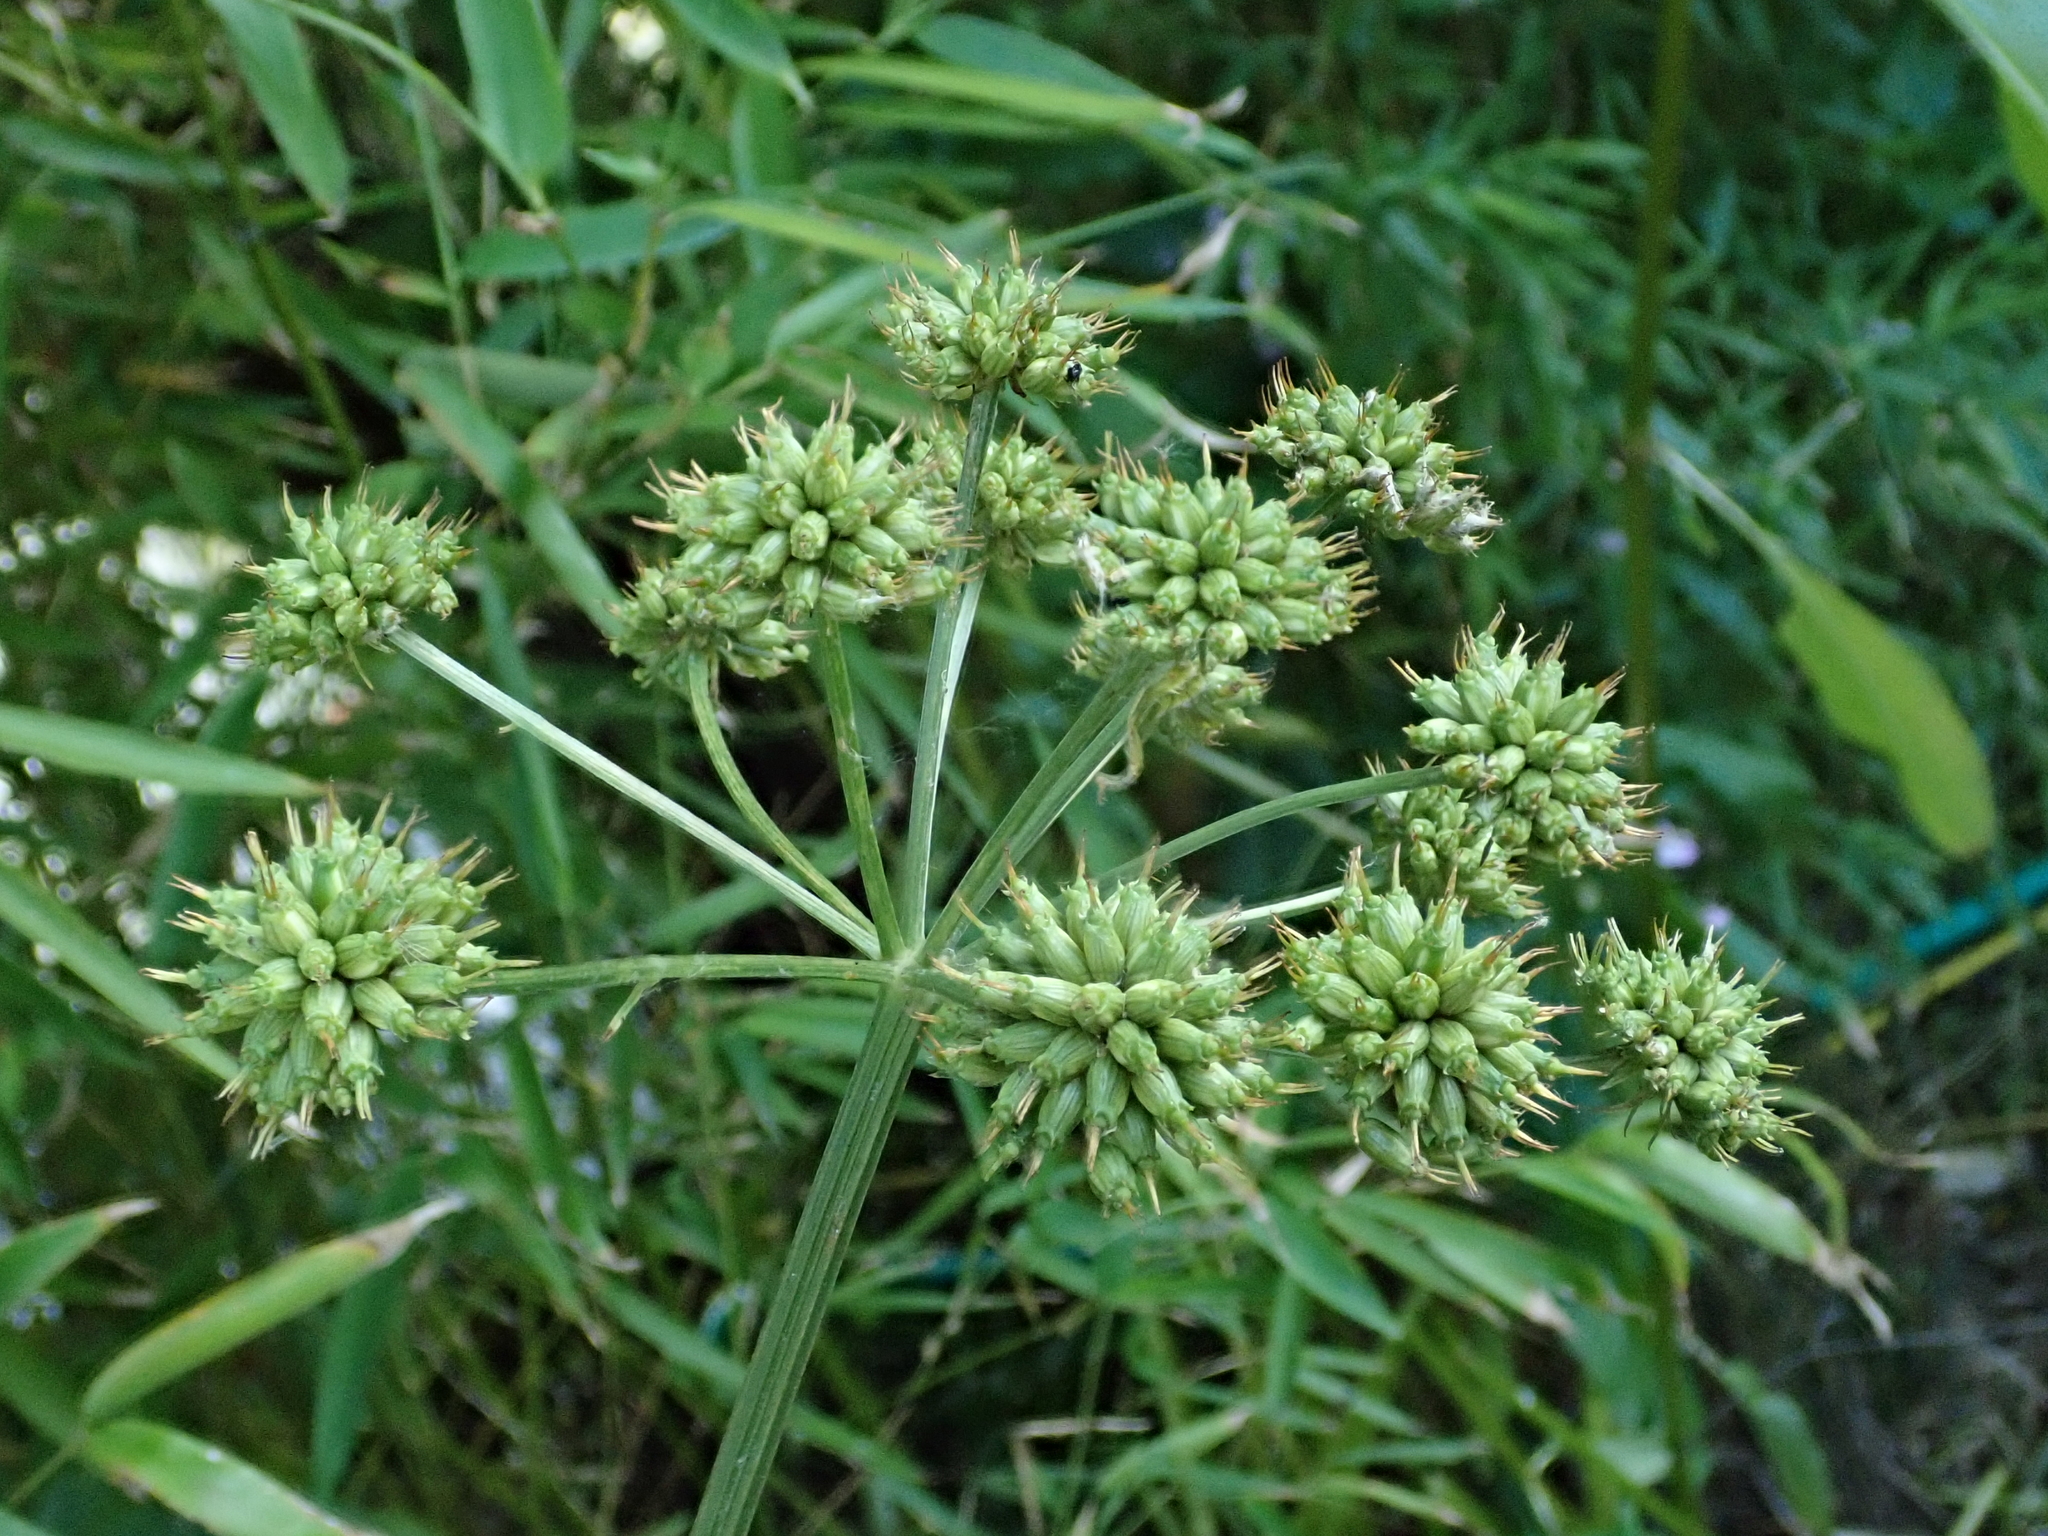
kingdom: Plantae
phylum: Tracheophyta
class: Magnoliopsida
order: Apiales
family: Apiaceae
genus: Oenanthe
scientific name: Oenanthe crocata
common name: Hemlock water-dropwort
